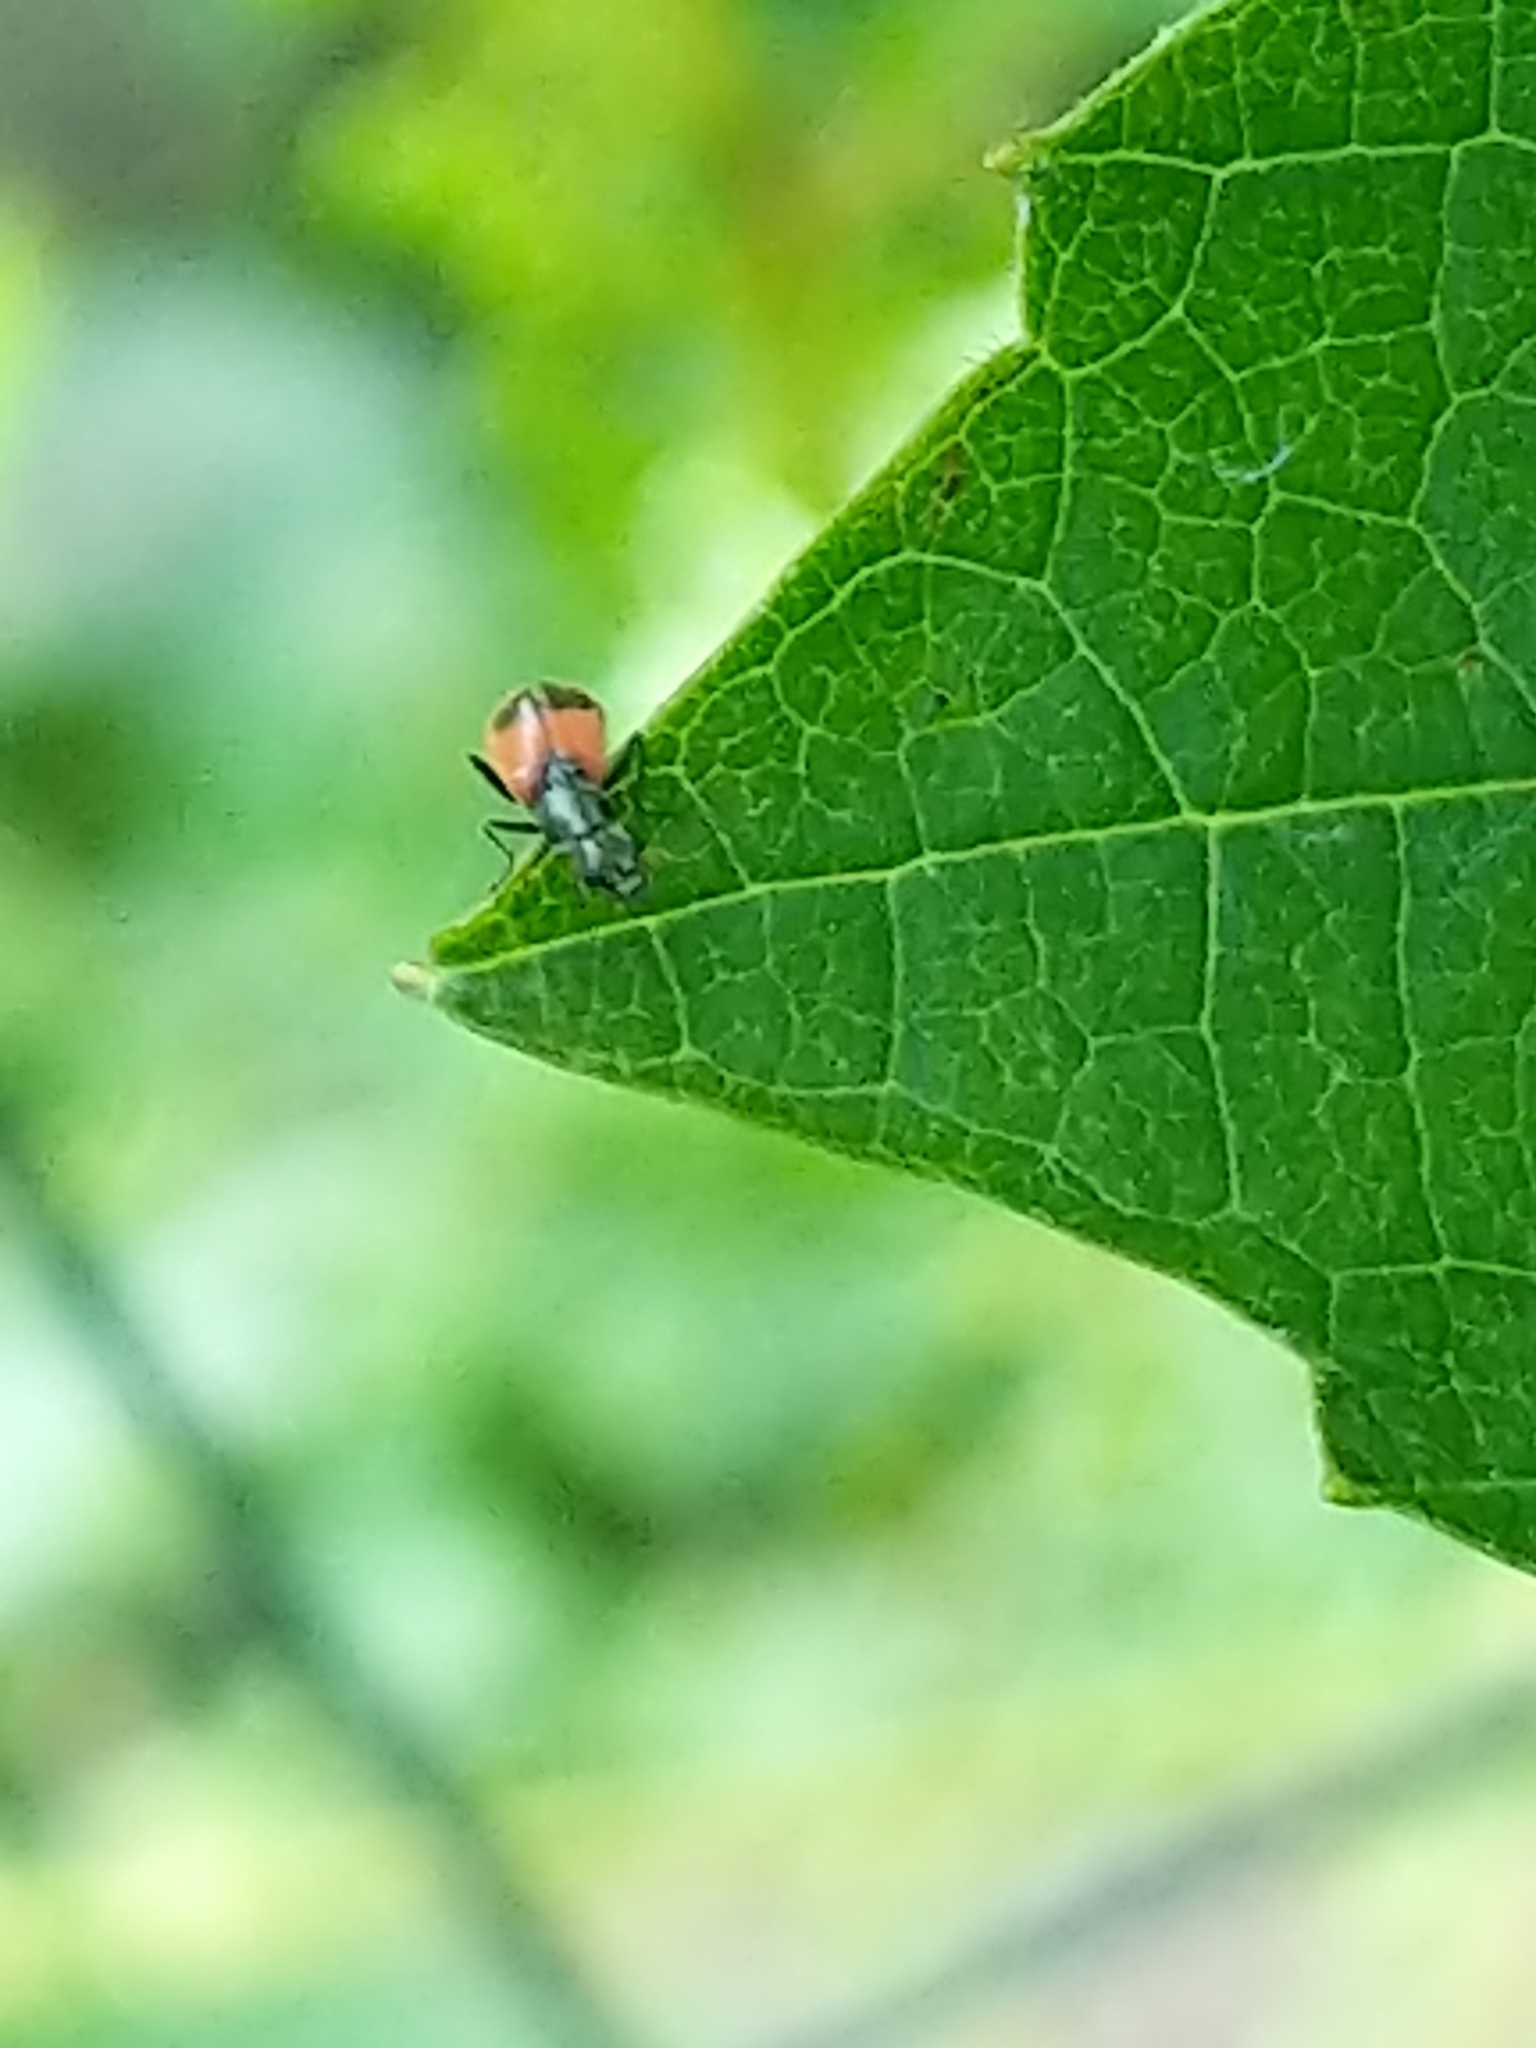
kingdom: Animalia
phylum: Arthropoda
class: Insecta
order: Coleoptera
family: Melyridae
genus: Anthocomus
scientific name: Anthocomus equestris
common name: Black-banded soft-winged flower beetle
